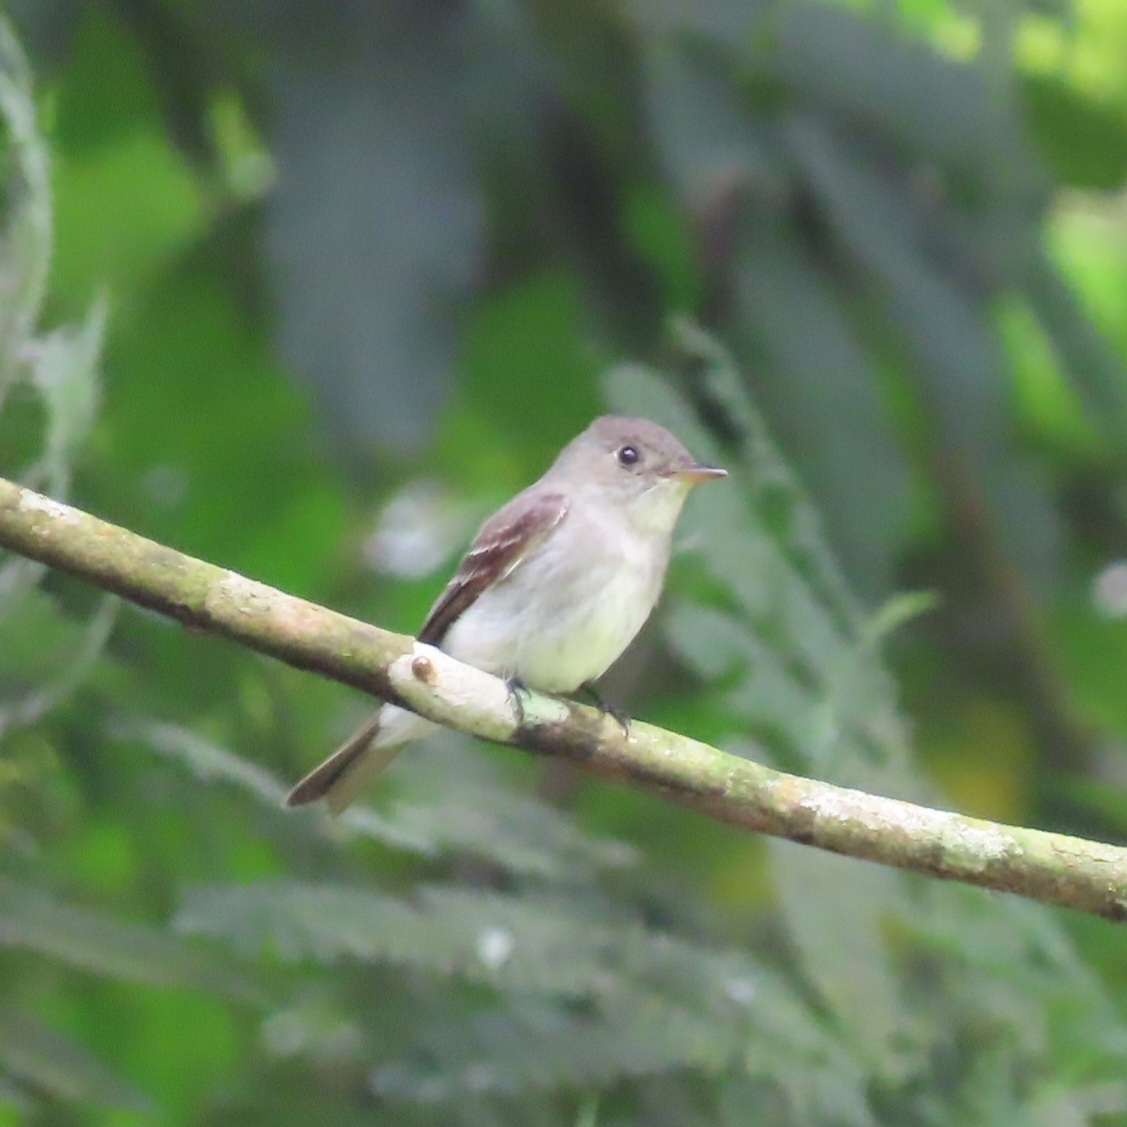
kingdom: Animalia
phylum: Chordata
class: Aves
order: Passeriformes
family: Tyrannidae
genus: Contopus
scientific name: Contopus virens
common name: Eastern wood-pewee
